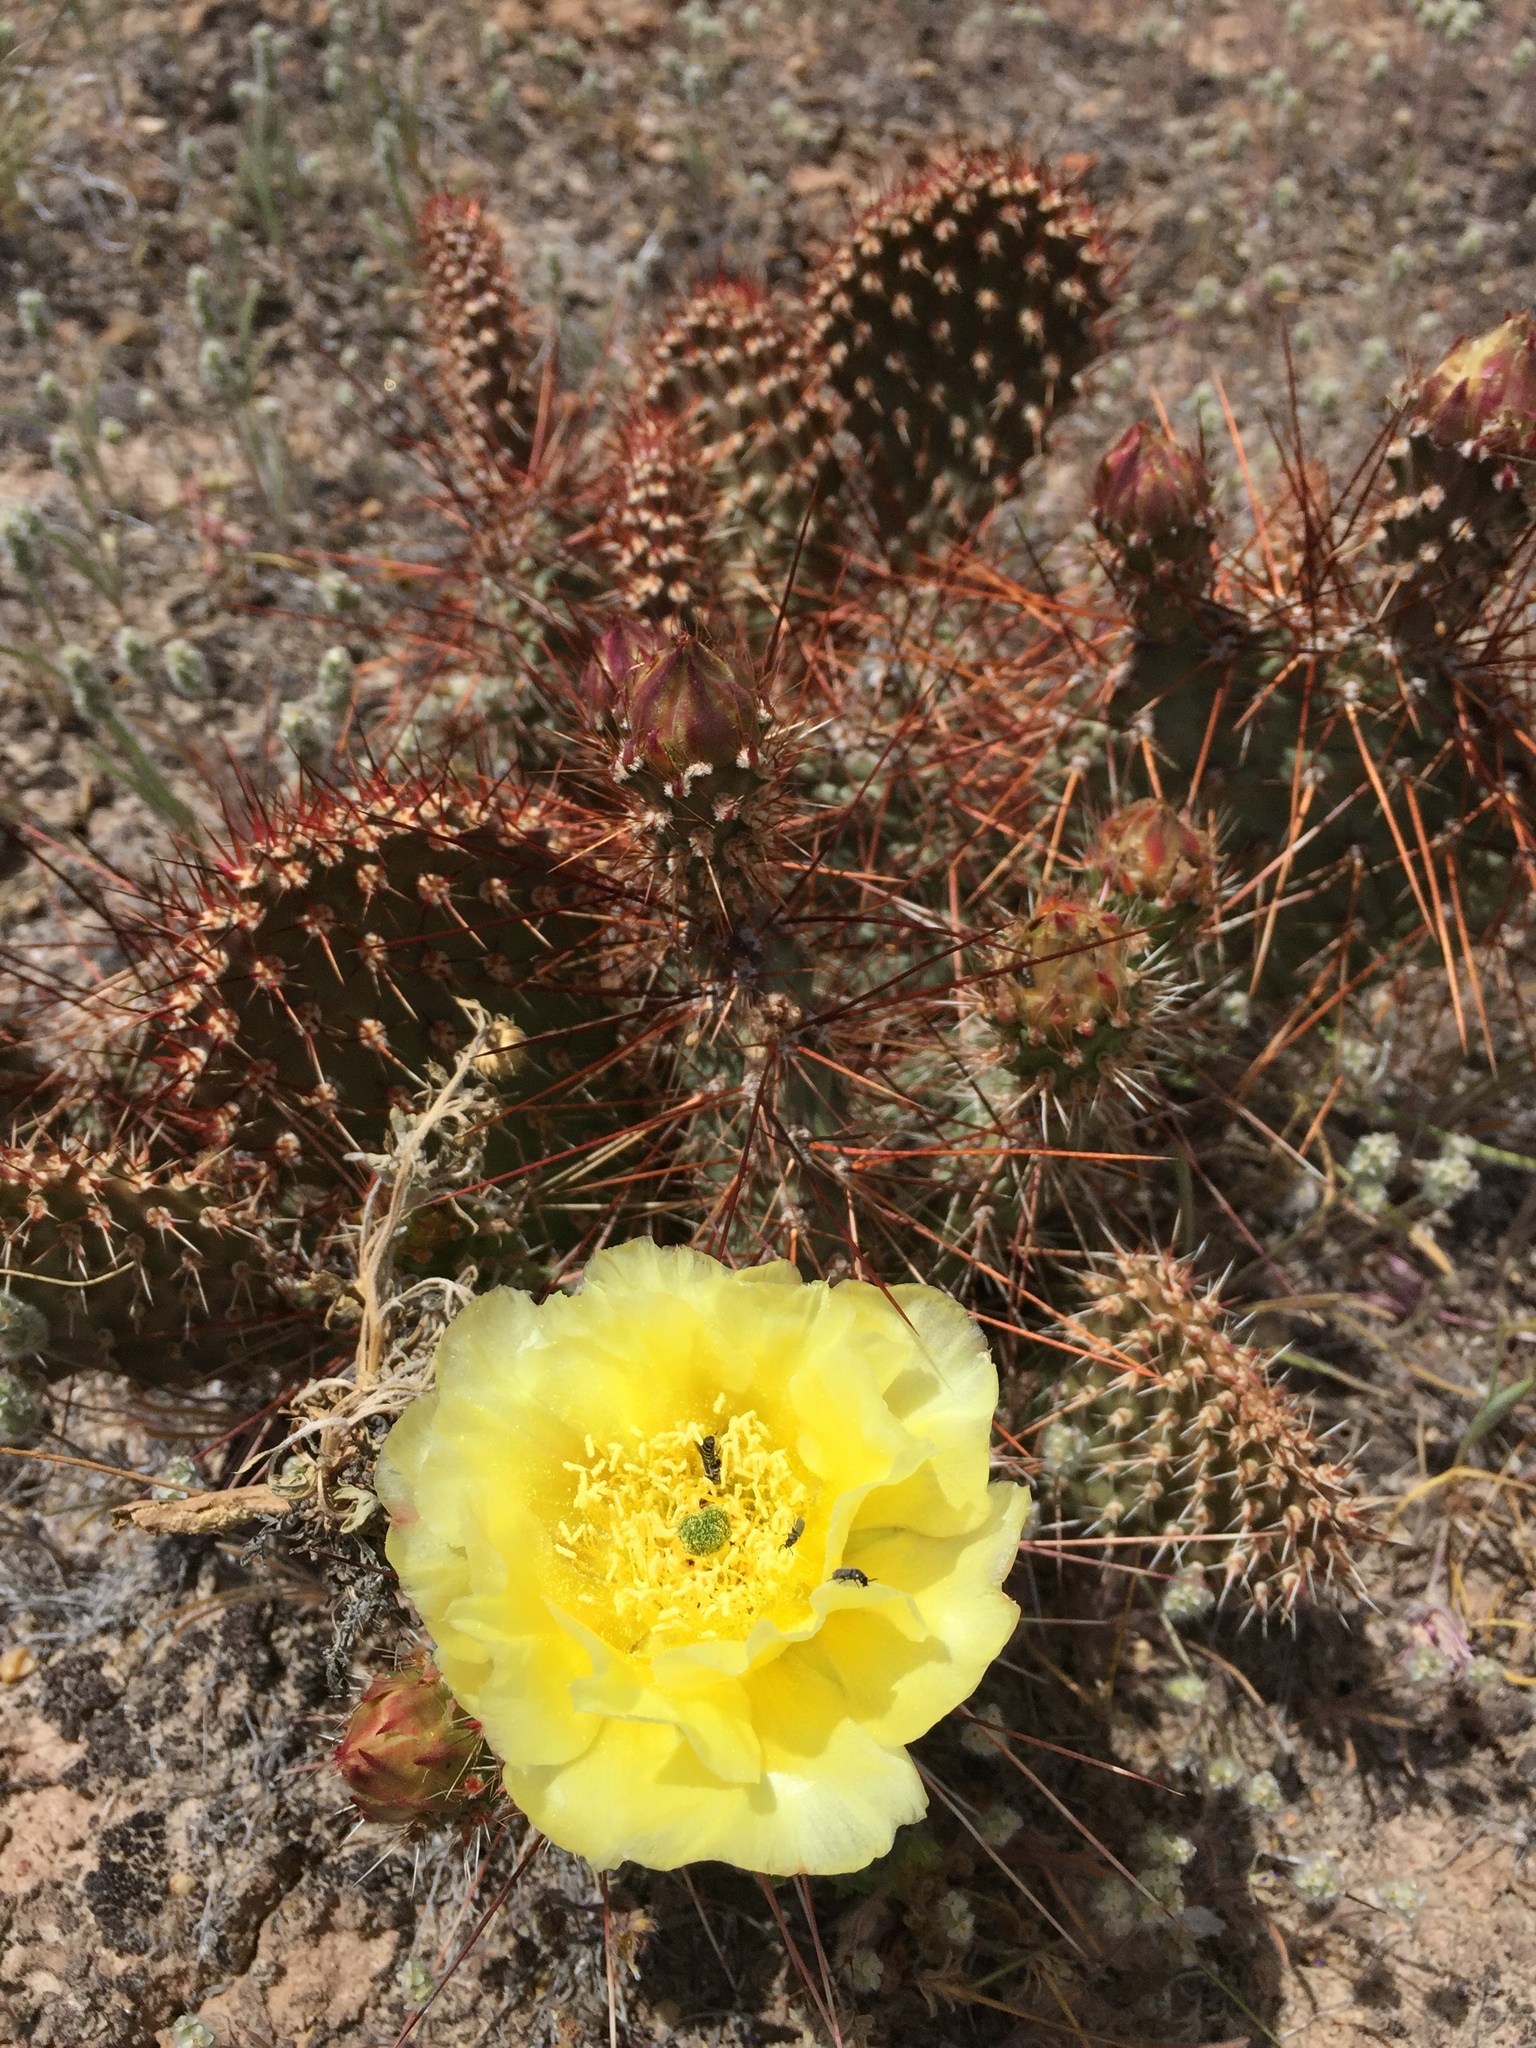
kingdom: Plantae
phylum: Tracheophyta
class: Magnoliopsida
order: Caryophyllales
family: Cactaceae
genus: Opuntia
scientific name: Opuntia polyacantha
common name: Plains prickly-pear
